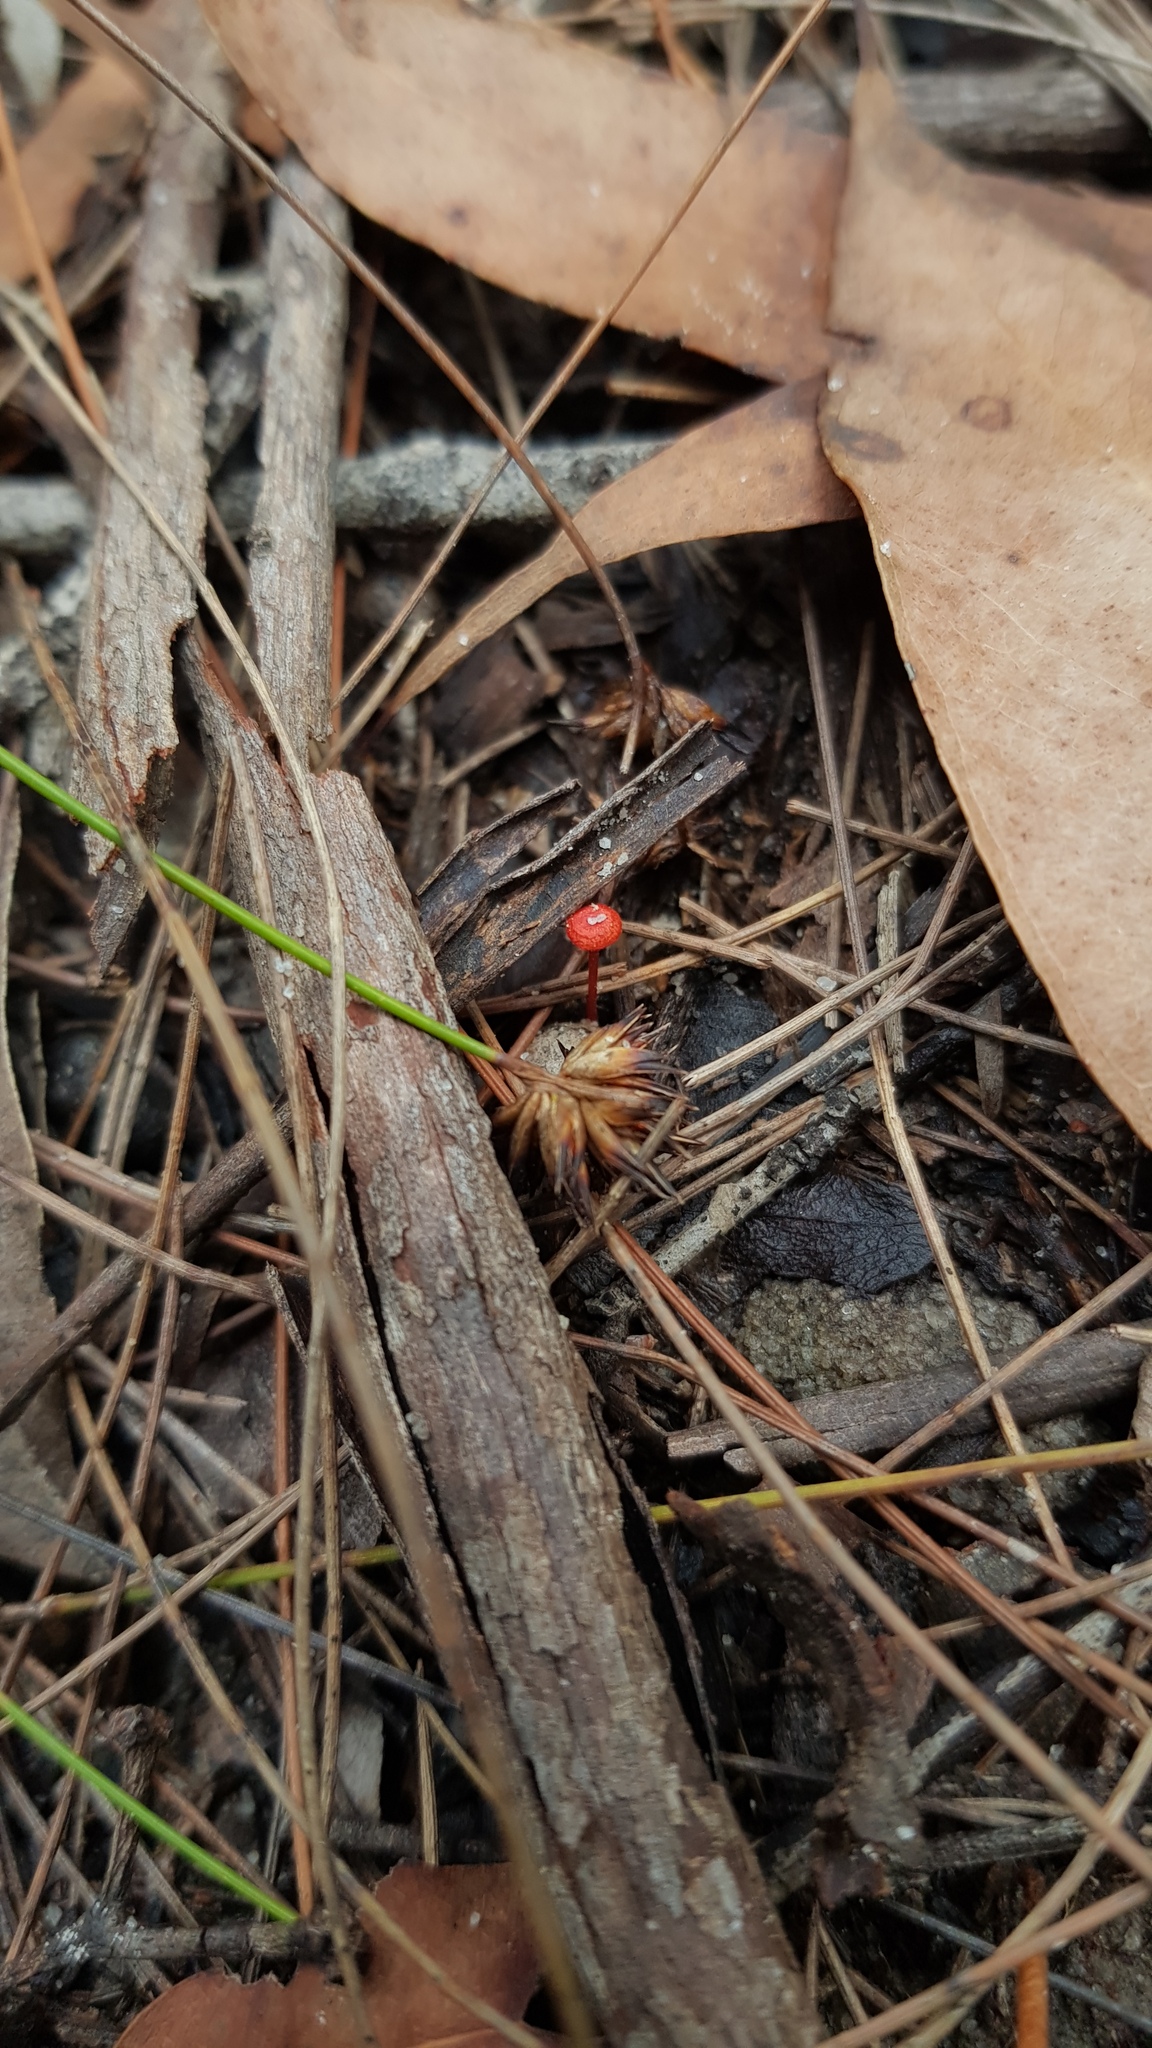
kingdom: Fungi
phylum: Basidiomycota
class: Agaricomycetes
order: Agaricales
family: Mycenaceae
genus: Cruentomycena
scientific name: Cruentomycena viscidocruenta
